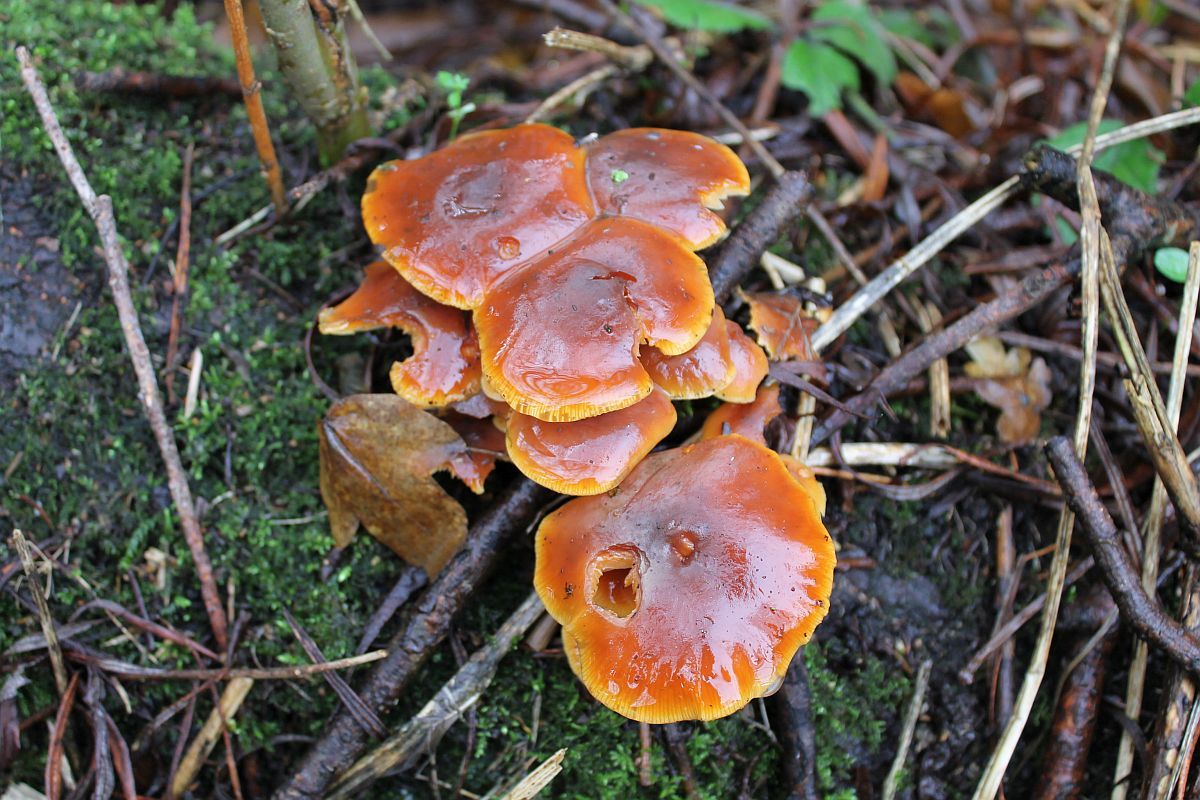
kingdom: Fungi
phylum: Basidiomycota
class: Agaricomycetes
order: Agaricales
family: Physalacriaceae
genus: Flammulina
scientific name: Flammulina
